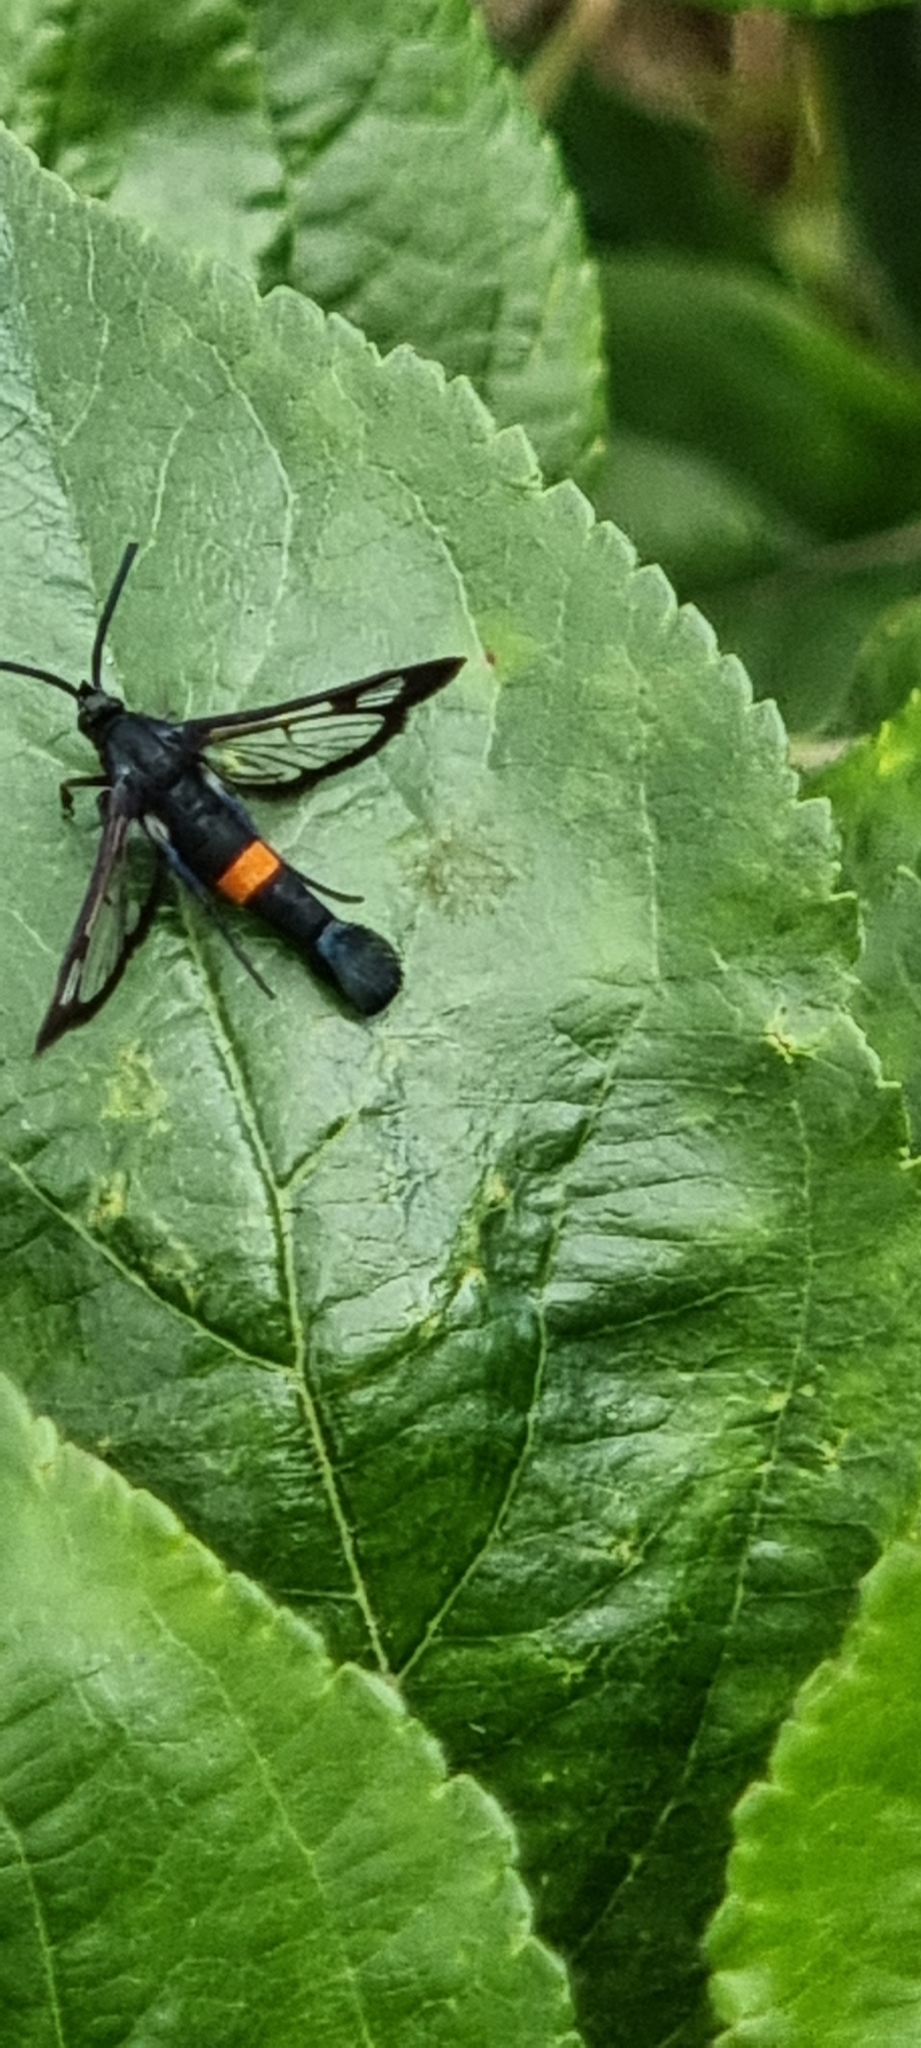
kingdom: Animalia
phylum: Arthropoda
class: Insecta
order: Lepidoptera
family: Sesiidae
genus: Synanthedon
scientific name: Synanthedon myopaeformis
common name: Red-belted clearwing
